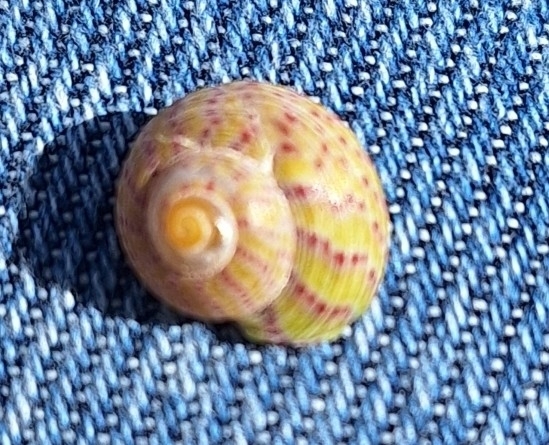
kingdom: Animalia
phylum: Mollusca
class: Gastropoda
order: Trochida
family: Trochidae
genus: Steromphala
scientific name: Steromphala divaricata
